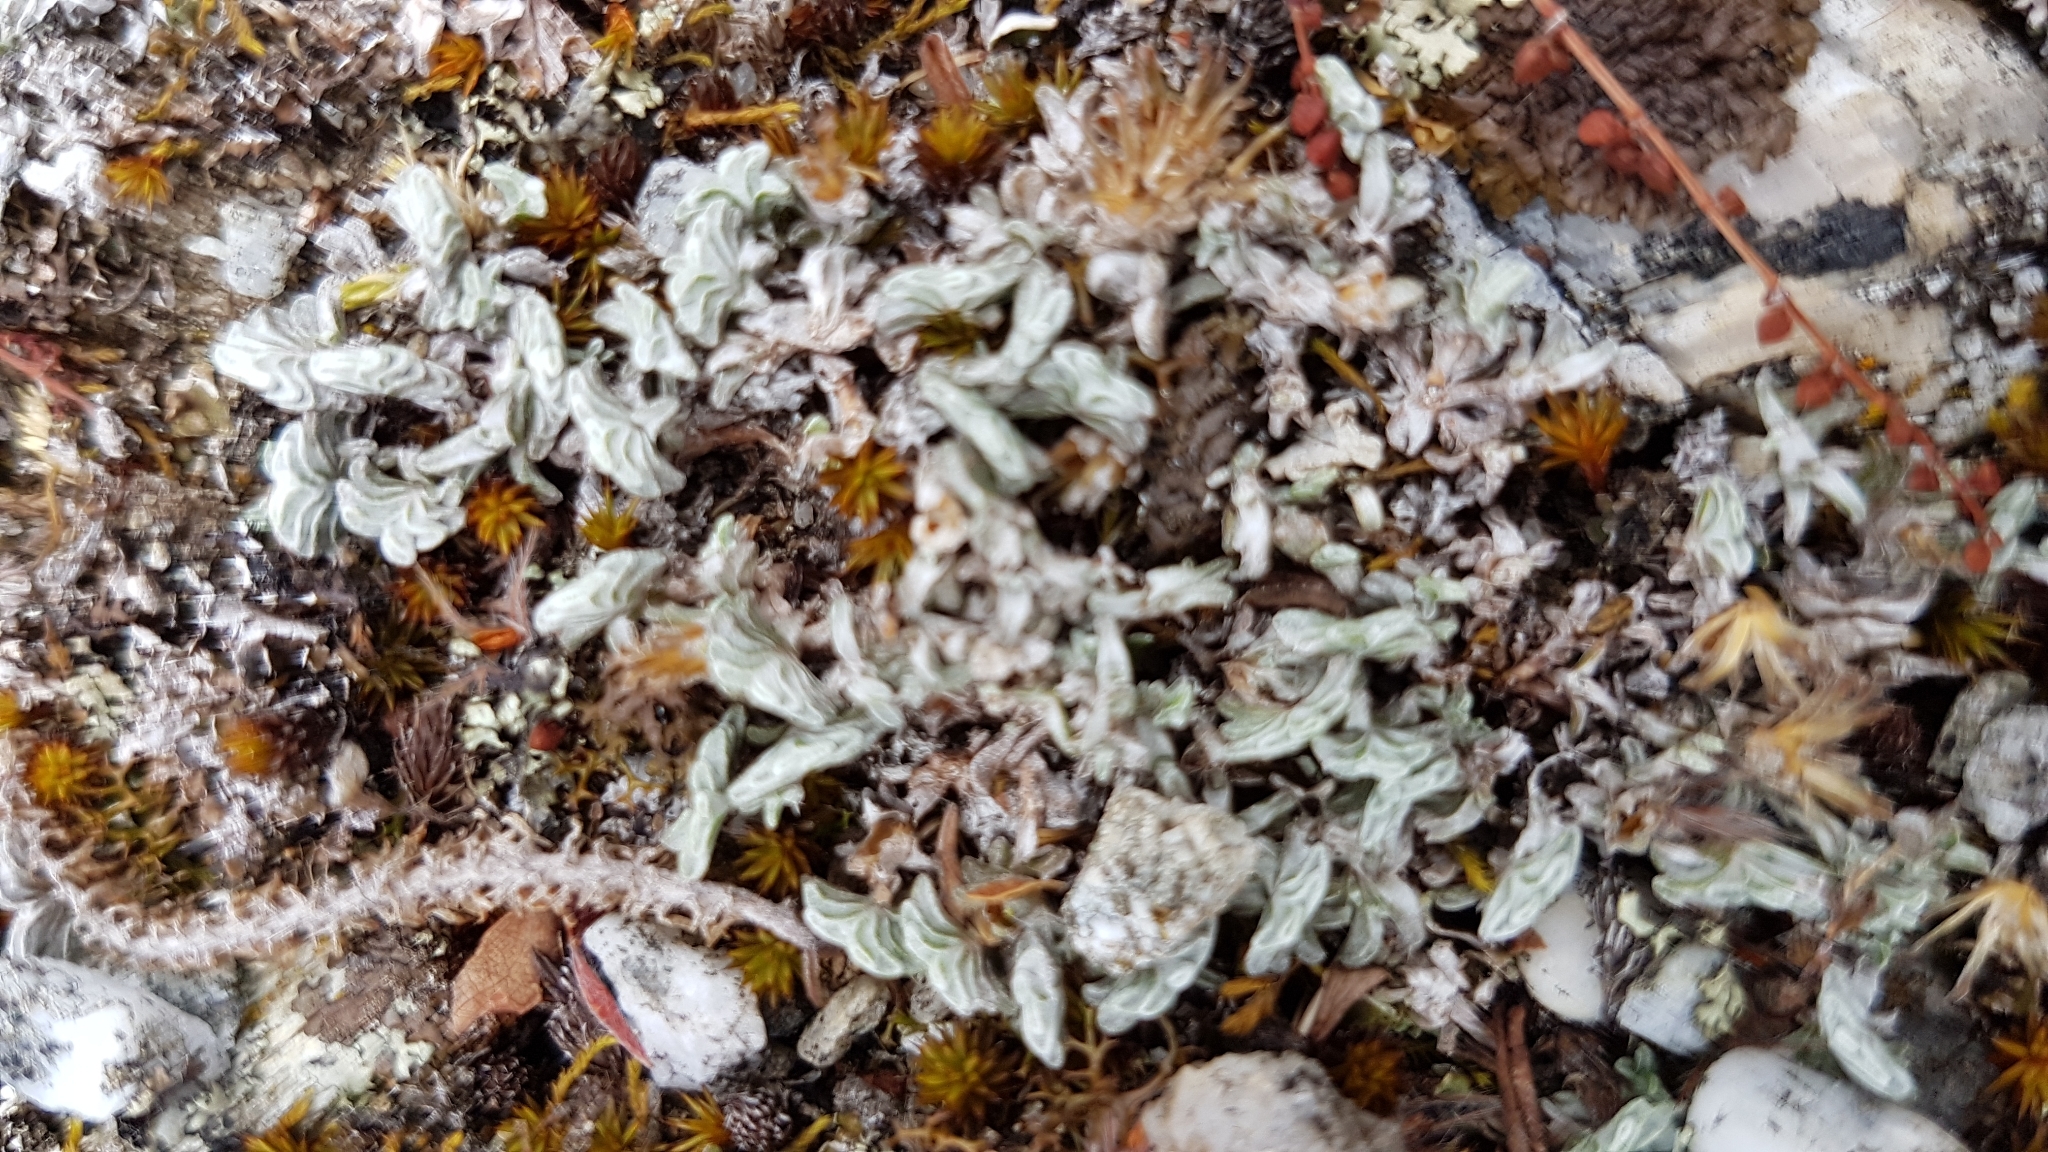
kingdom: Plantae
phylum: Tracheophyta
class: Magnoliopsida
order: Asterales
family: Asteraceae
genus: Raoulia
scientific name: Raoulia monroi
